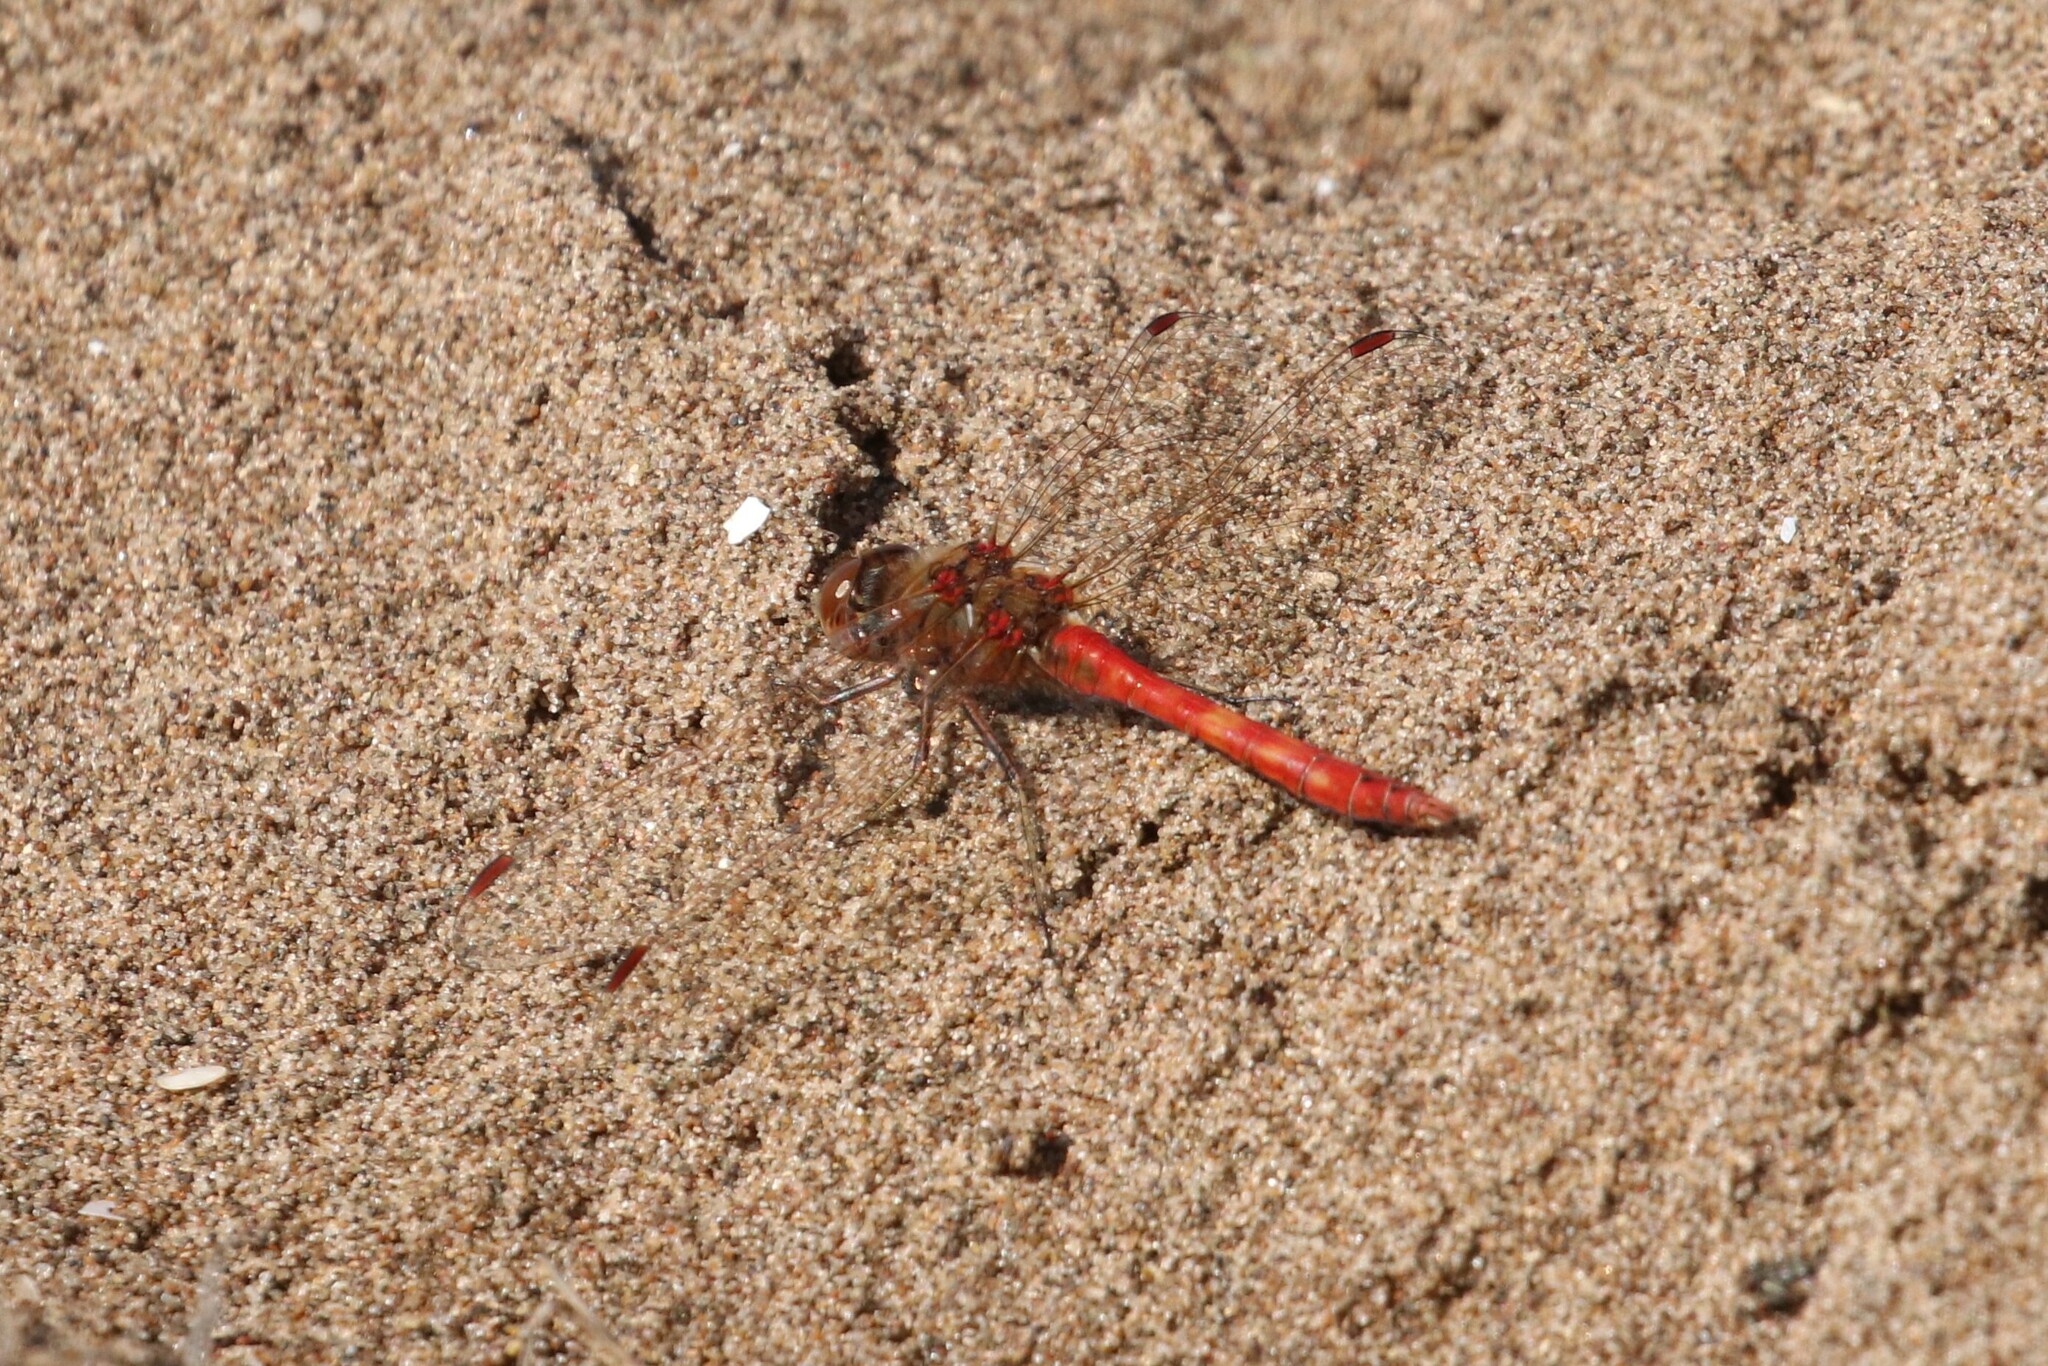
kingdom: Animalia
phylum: Arthropoda
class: Insecta
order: Odonata
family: Libellulidae
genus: Sympetrum
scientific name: Sympetrum vulgatum
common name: Vagrant darter
